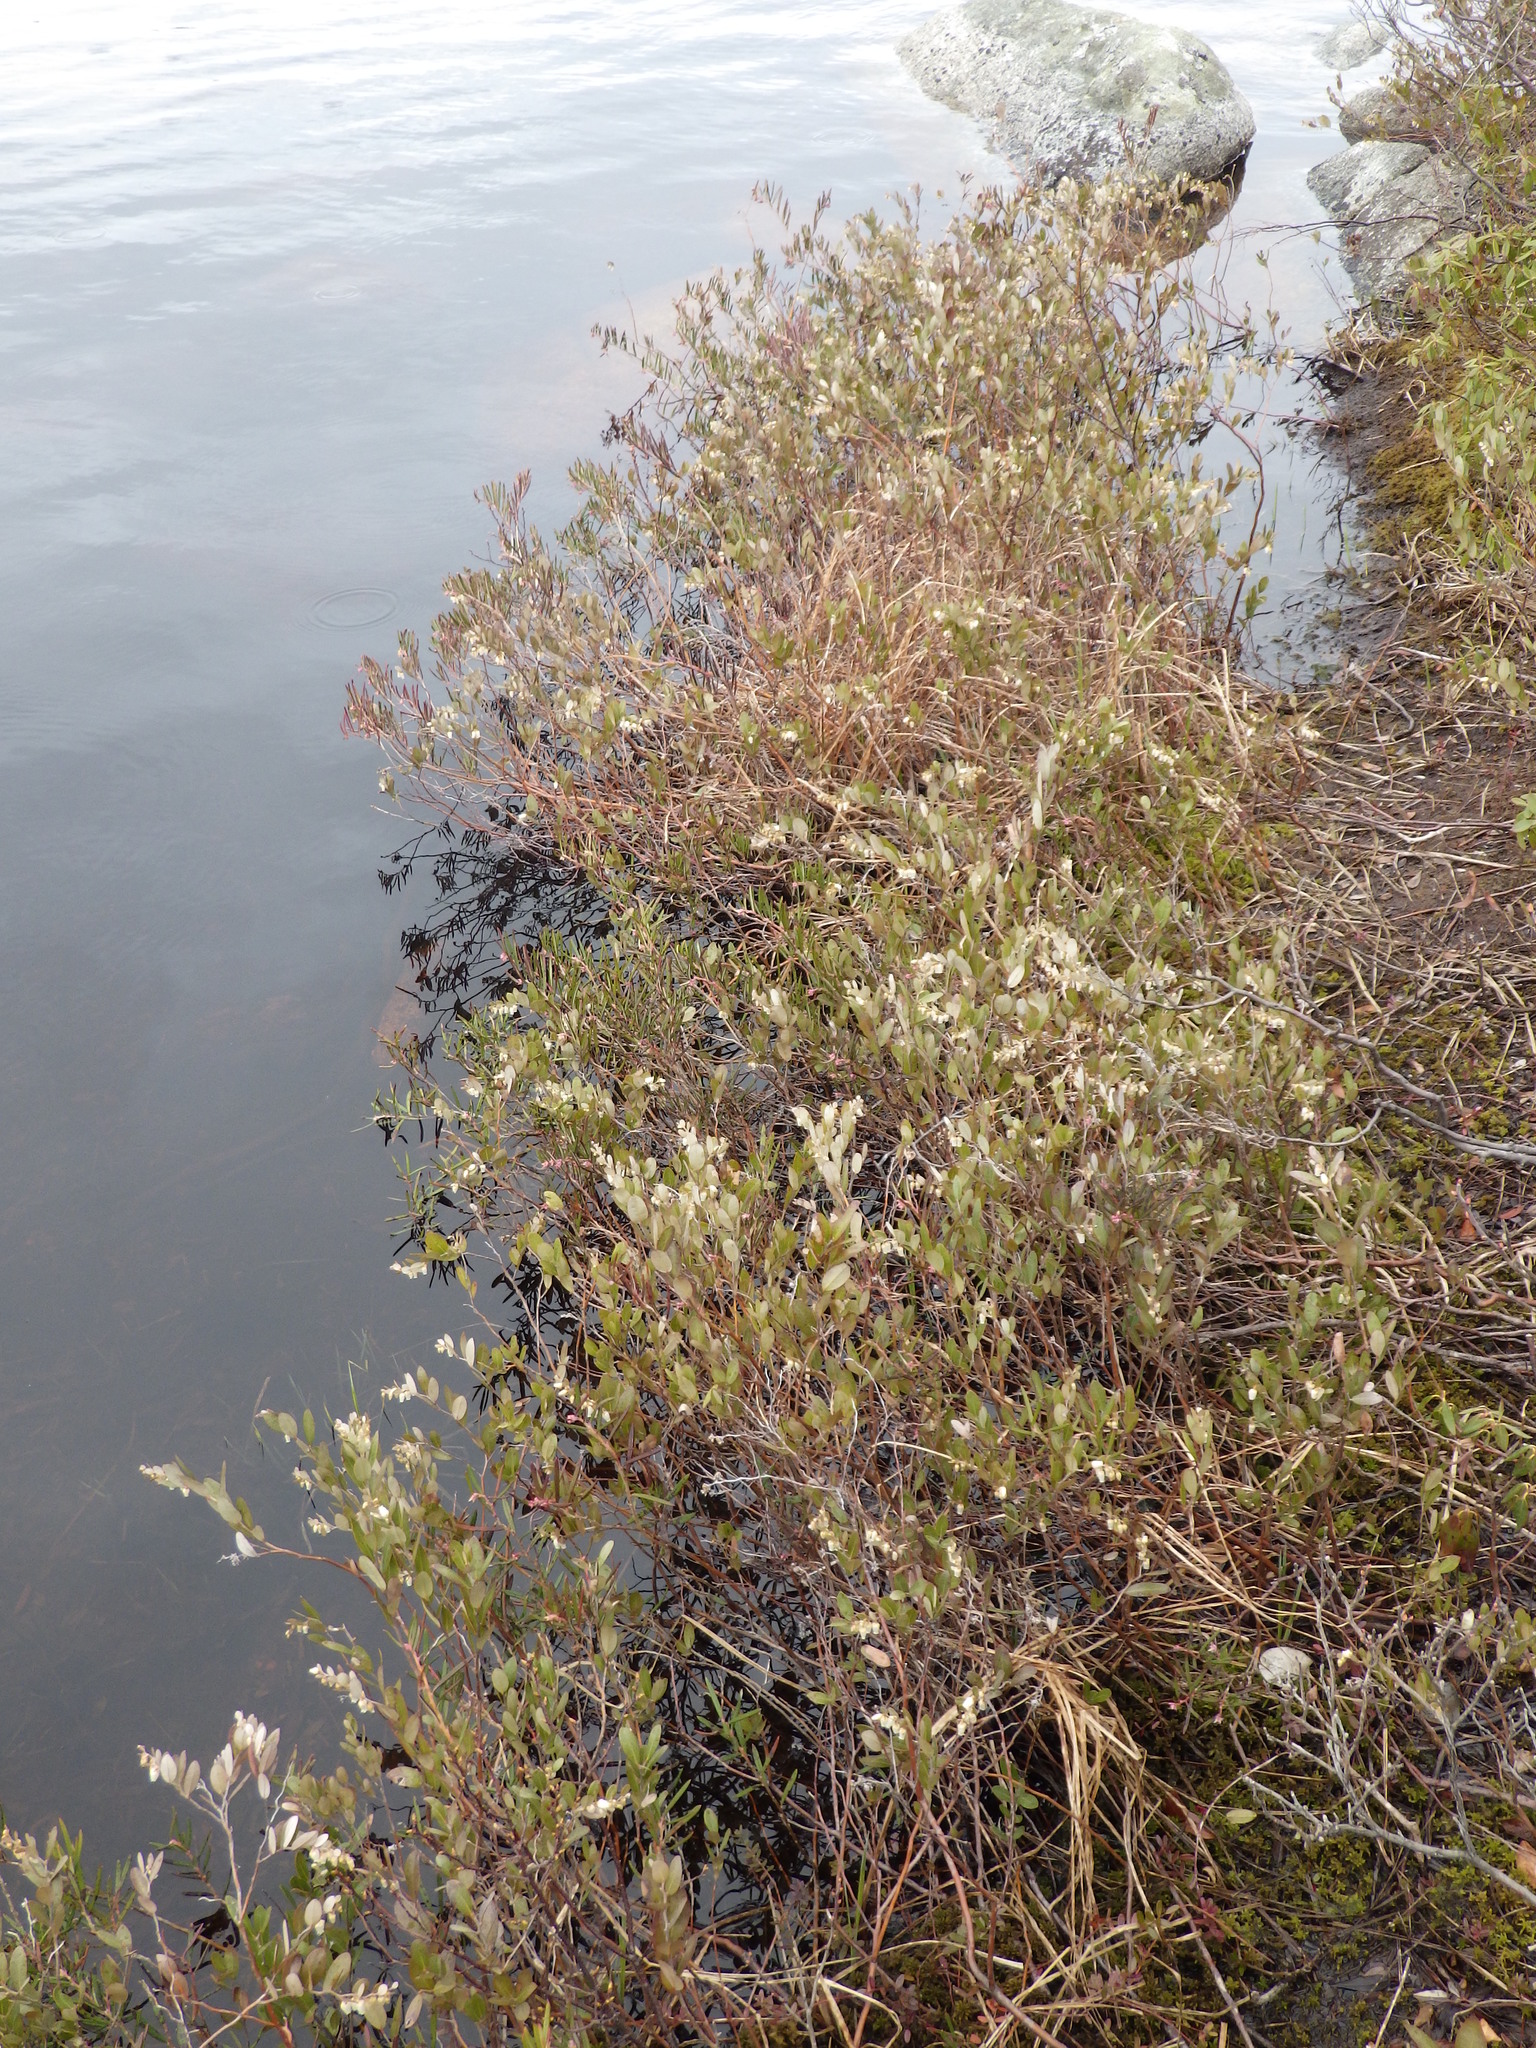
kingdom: Plantae
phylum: Tracheophyta
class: Magnoliopsida
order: Ericales
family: Ericaceae
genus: Chamaedaphne
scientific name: Chamaedaphne calyculata
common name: Leatherleaf
